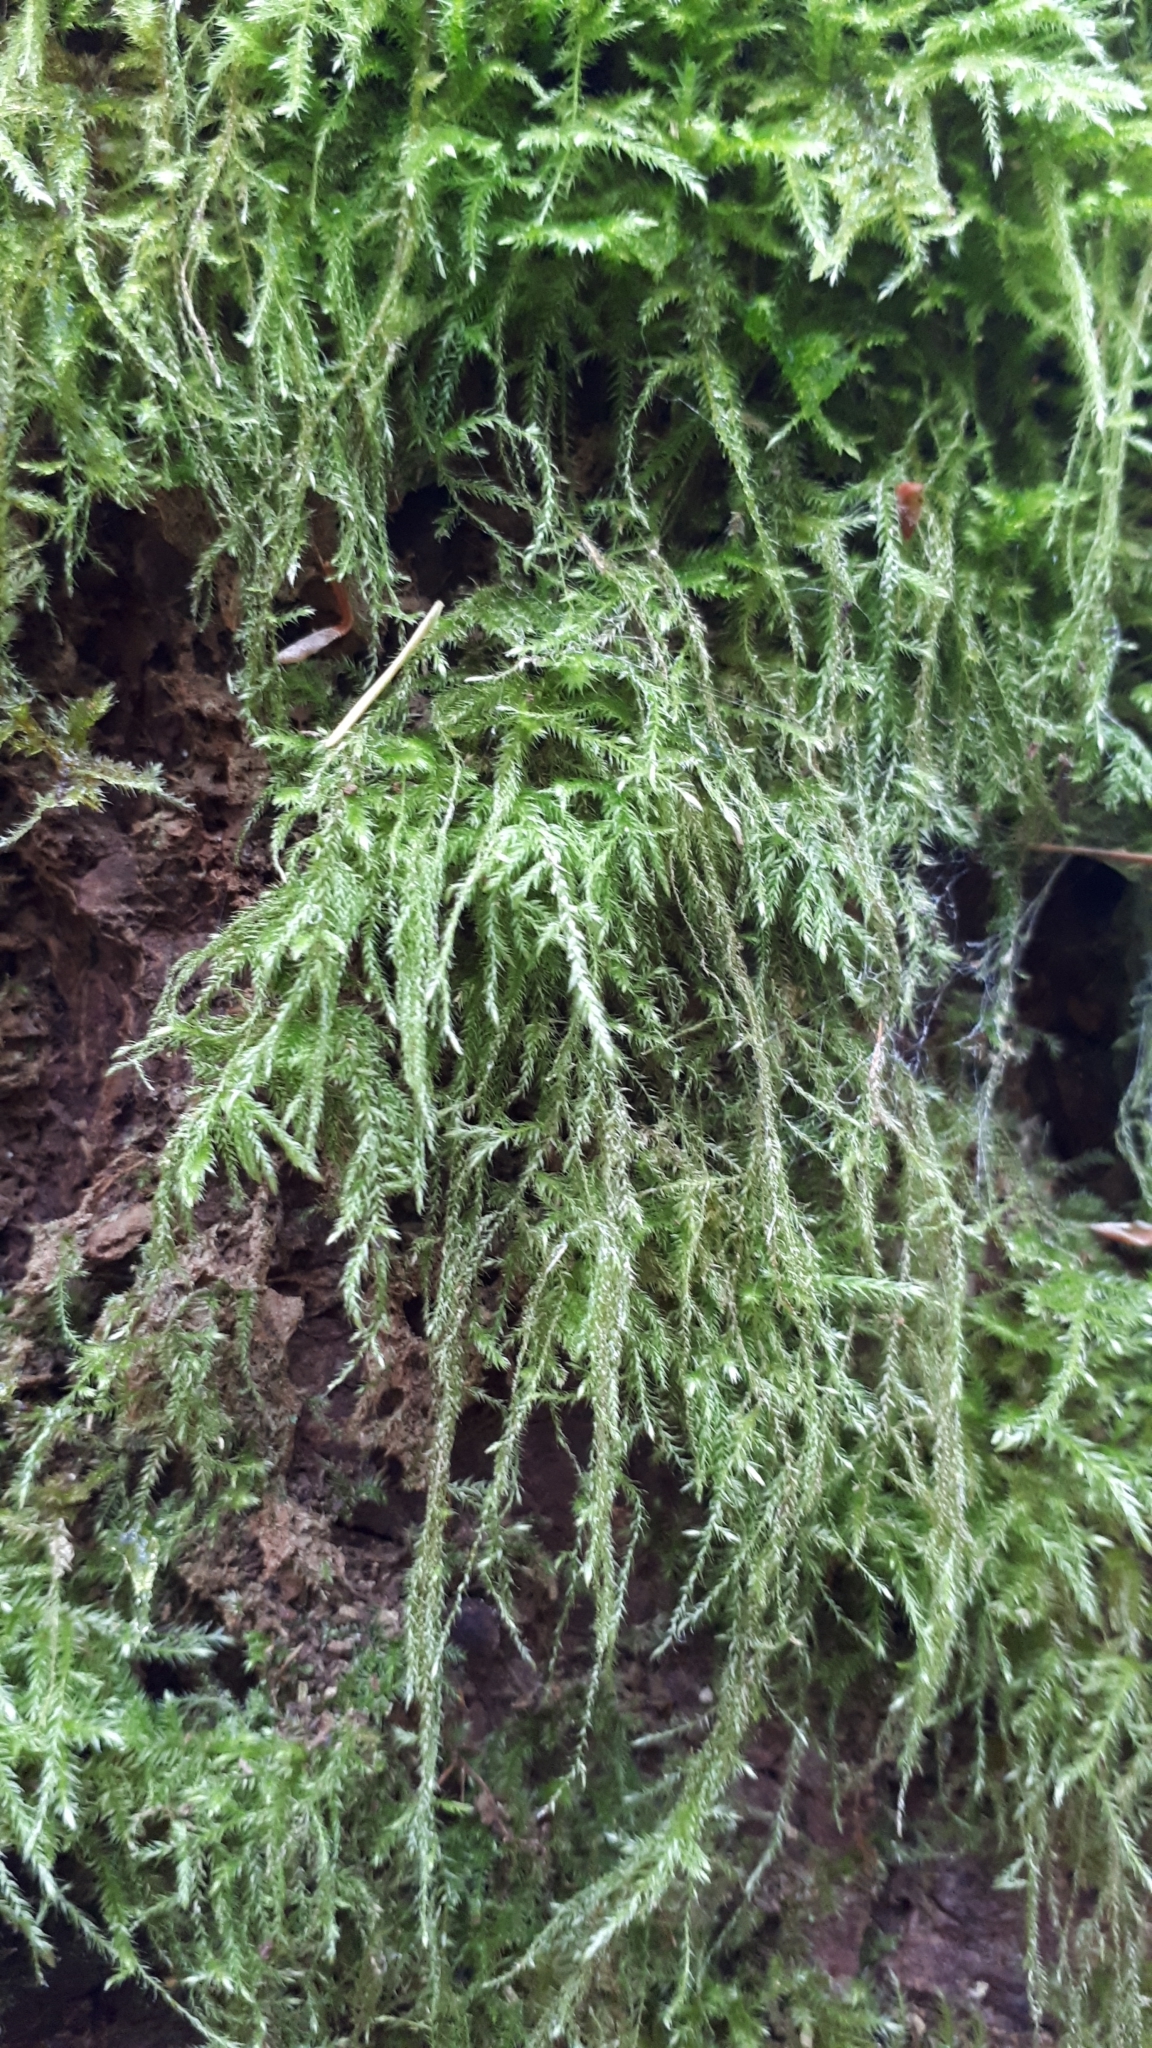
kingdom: Plantae
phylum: Bryophyta
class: Bryopsida
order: Hypnales
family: Lembophyllaceae
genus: Pseudisothecium
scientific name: Pseudisothecium stoloniferum
